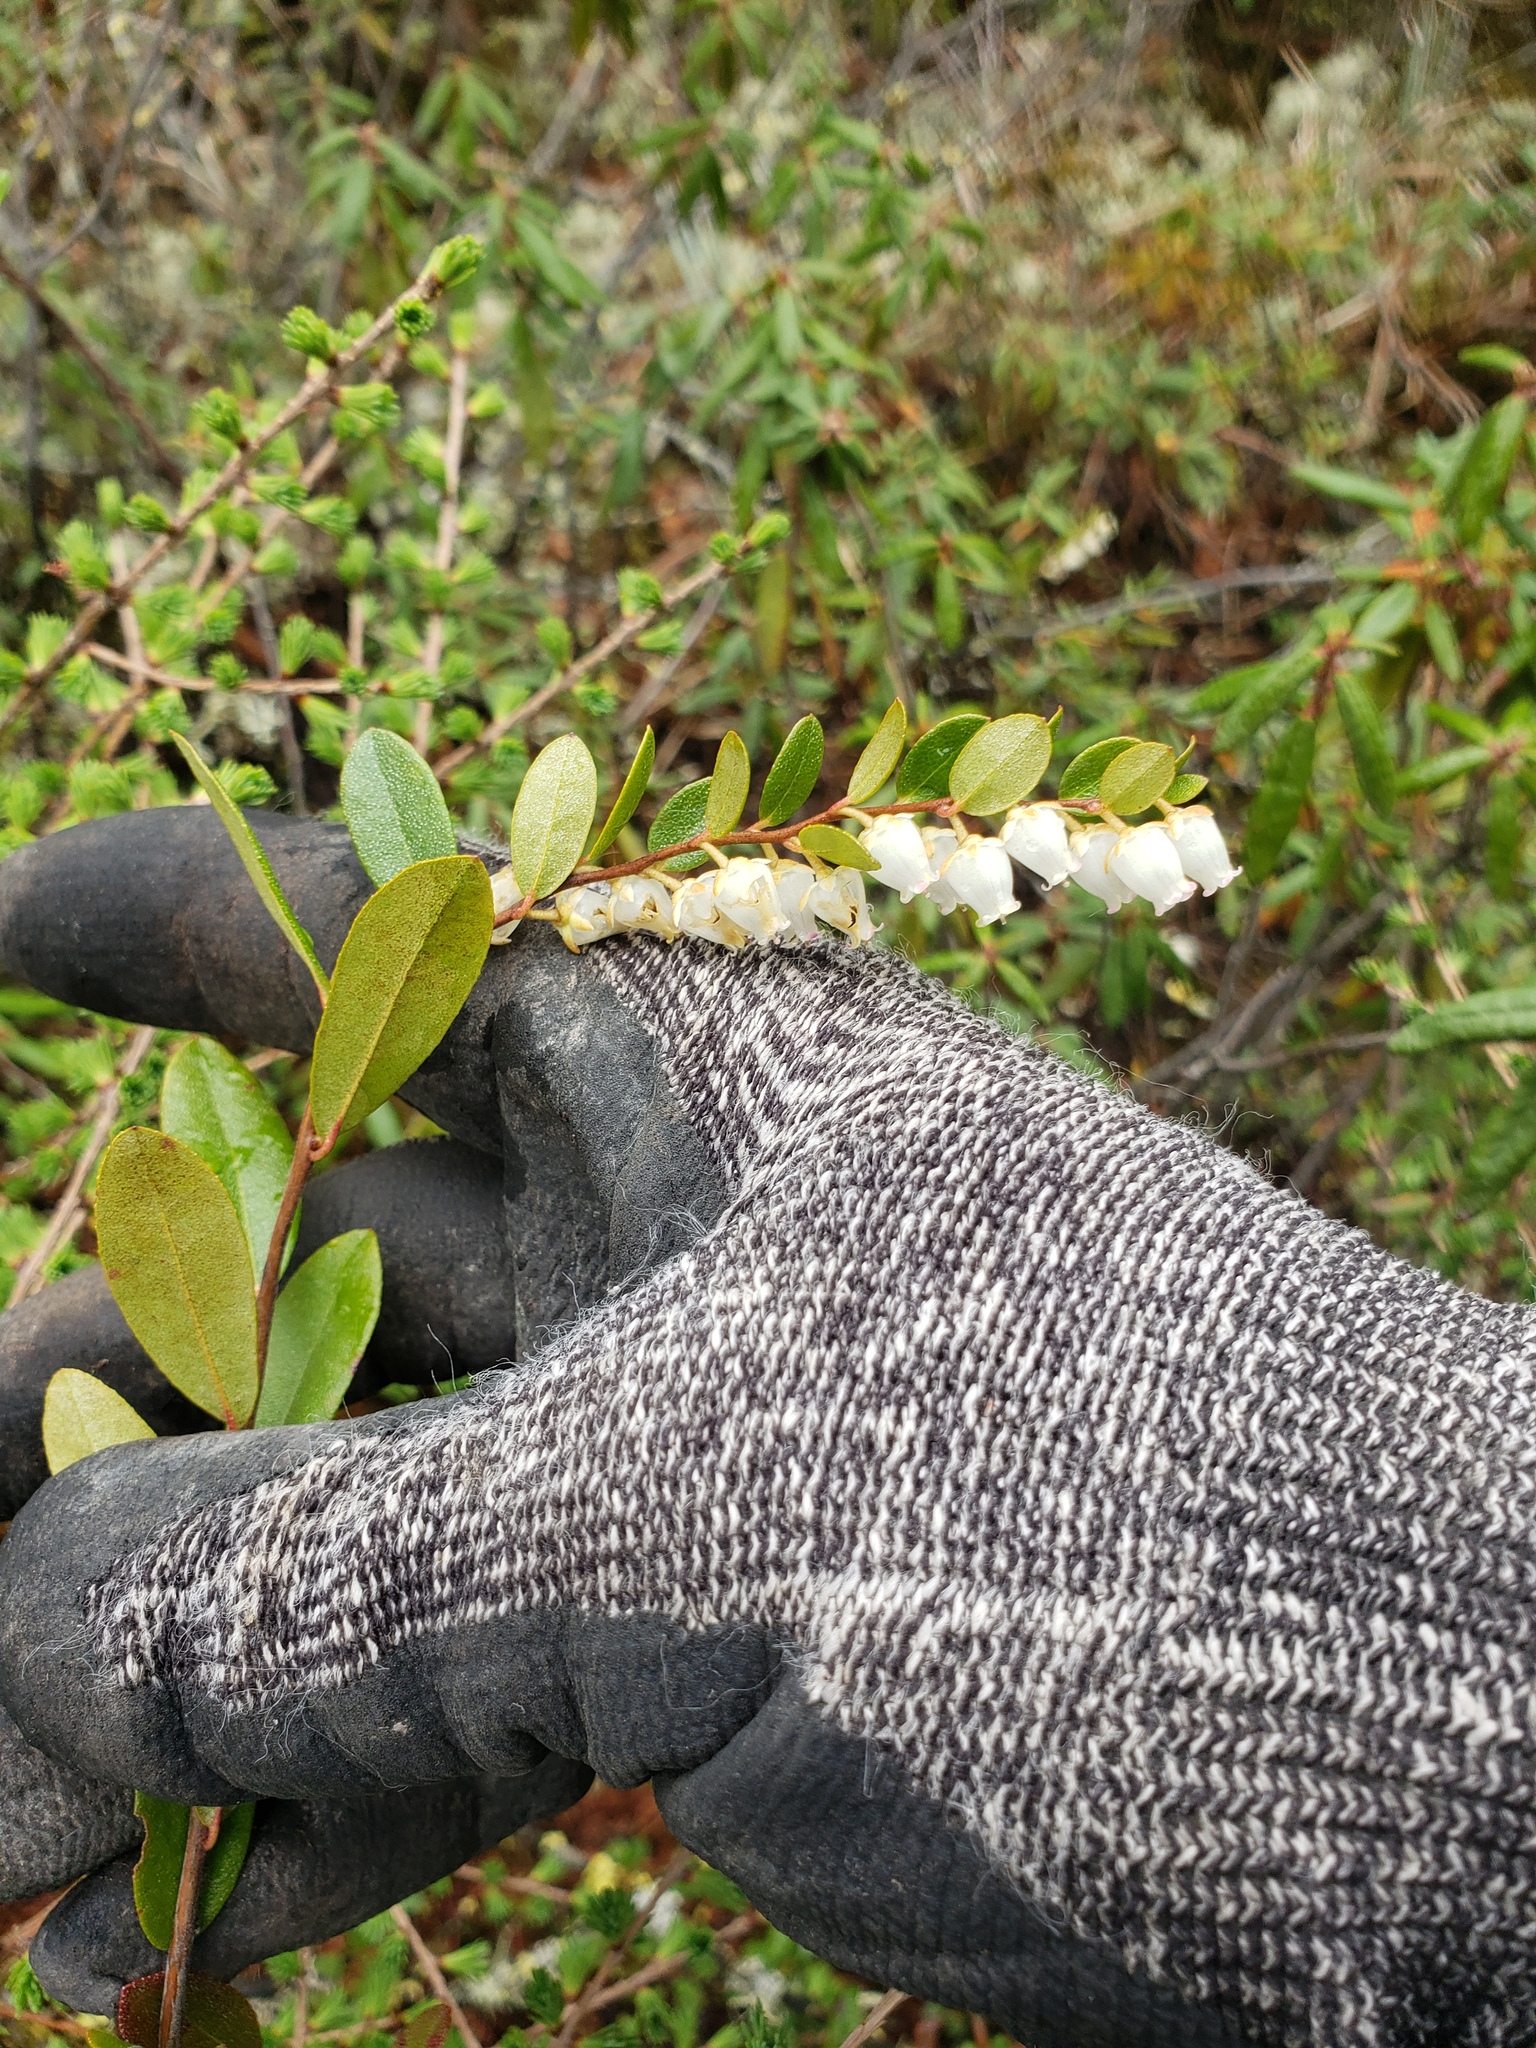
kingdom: Plantae
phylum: Tracheophyta
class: Magnoliopsida
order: Ericales
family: Ericaceae
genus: Chamaedaphne
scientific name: Chamaedaphne calyculata
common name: Leatherleaf
